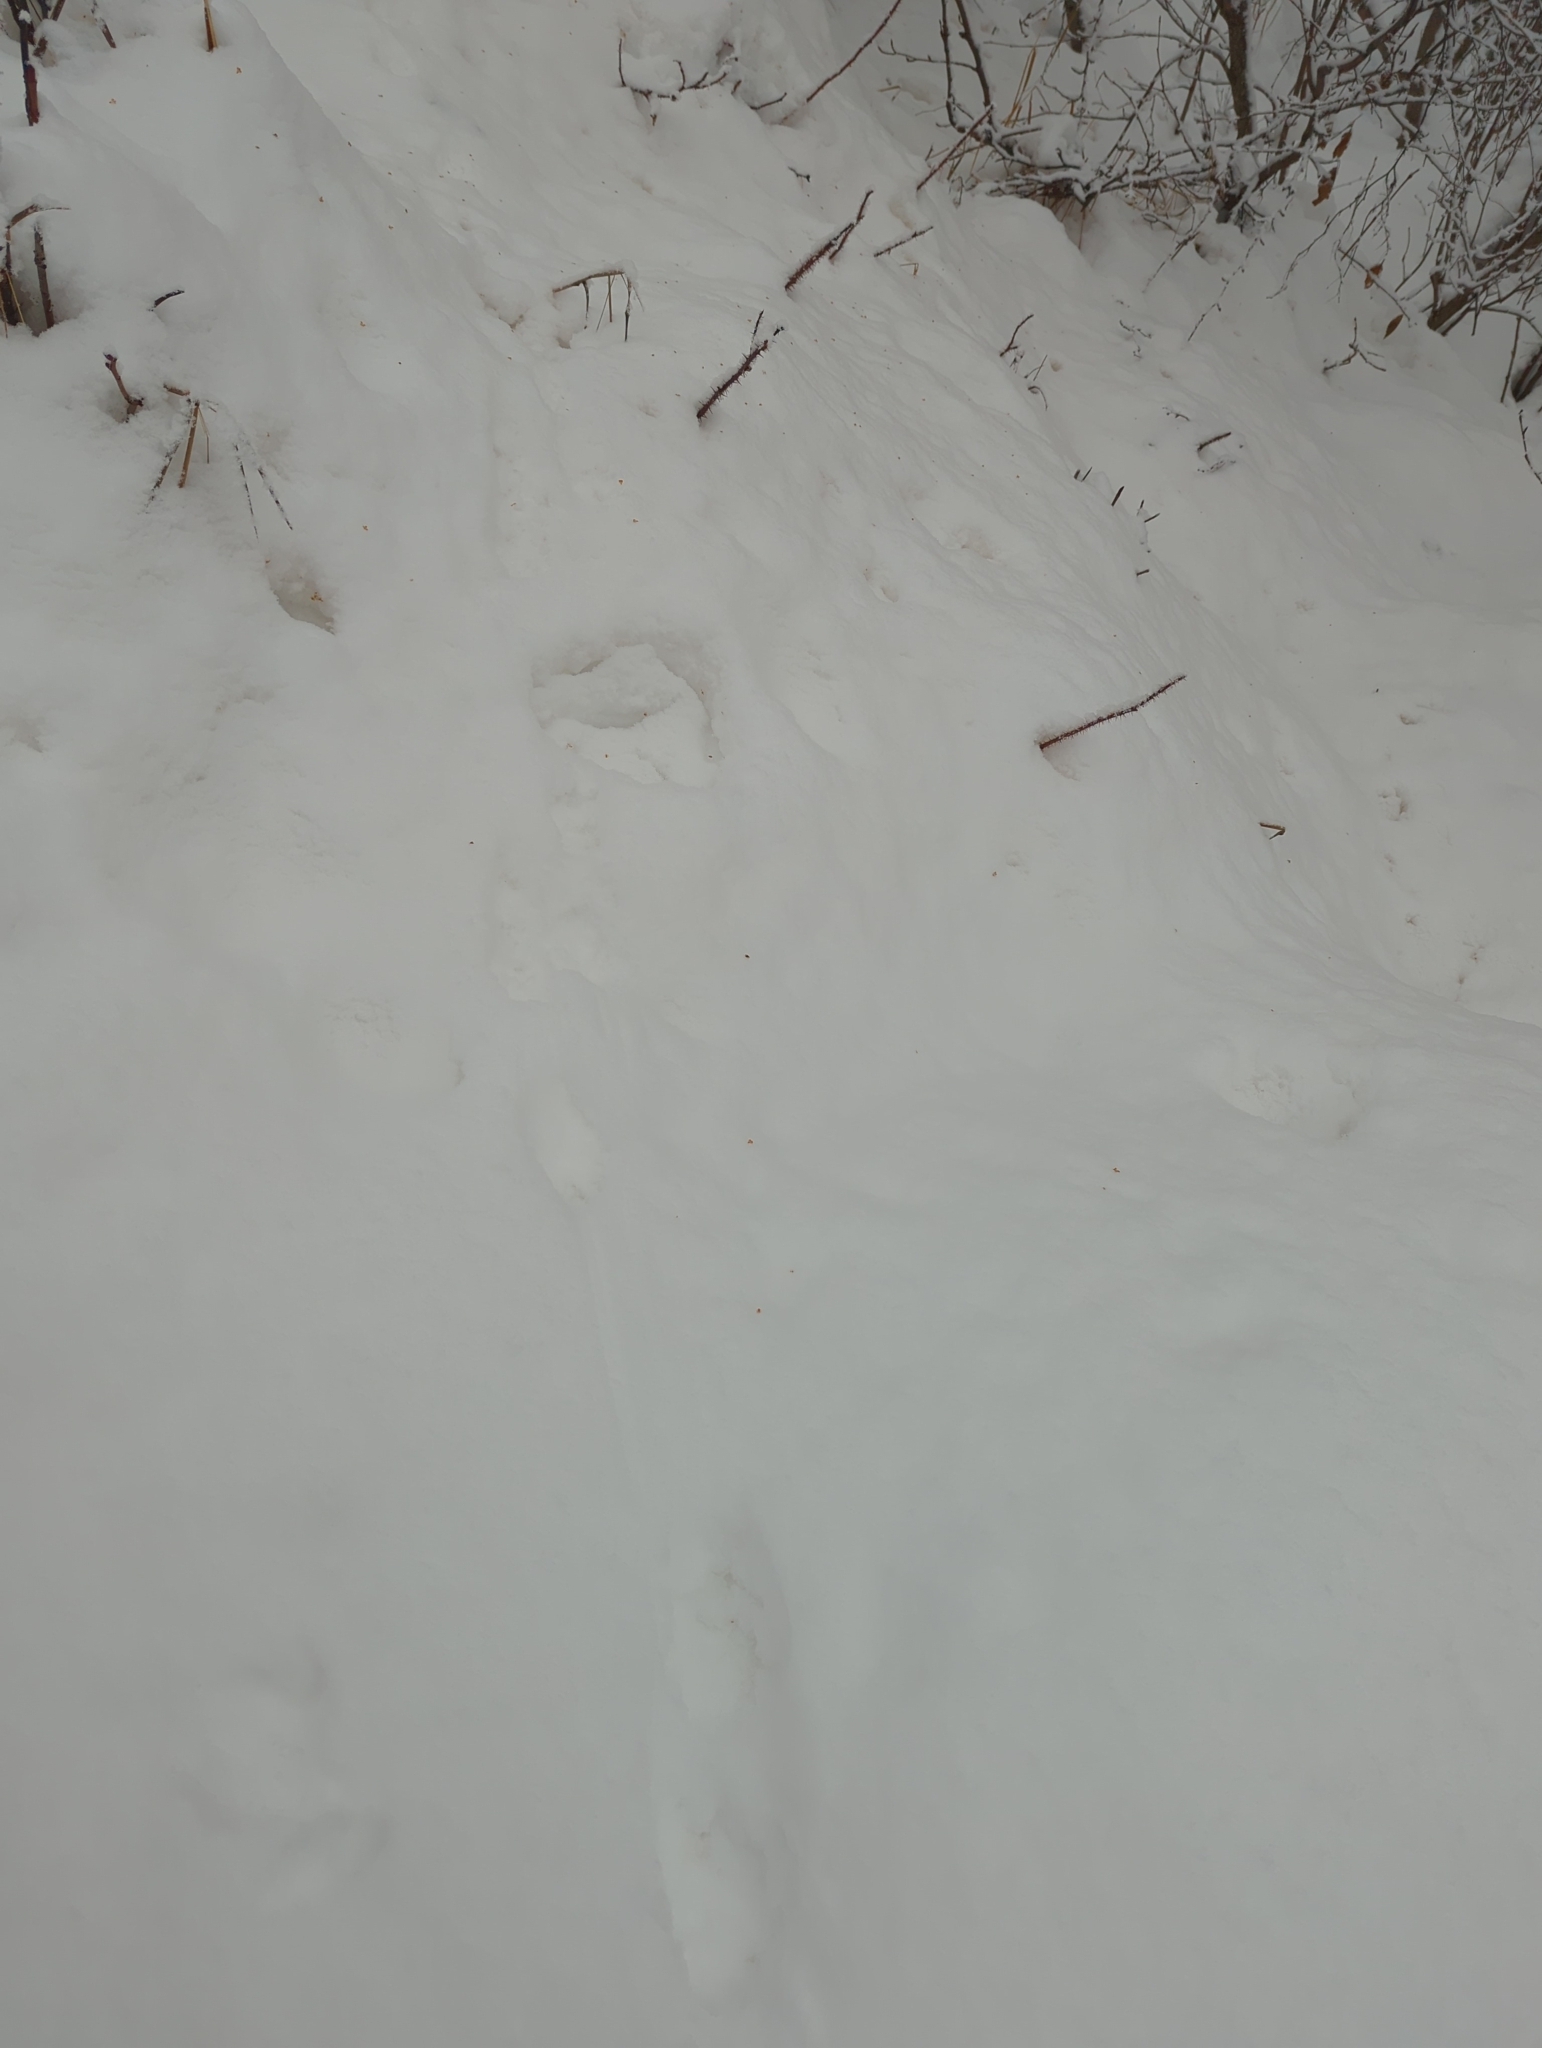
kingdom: Animalia
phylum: Chordata
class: Mammalia
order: Carnivora
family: Mustelidae
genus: Martes
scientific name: Martes americana
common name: American marten
